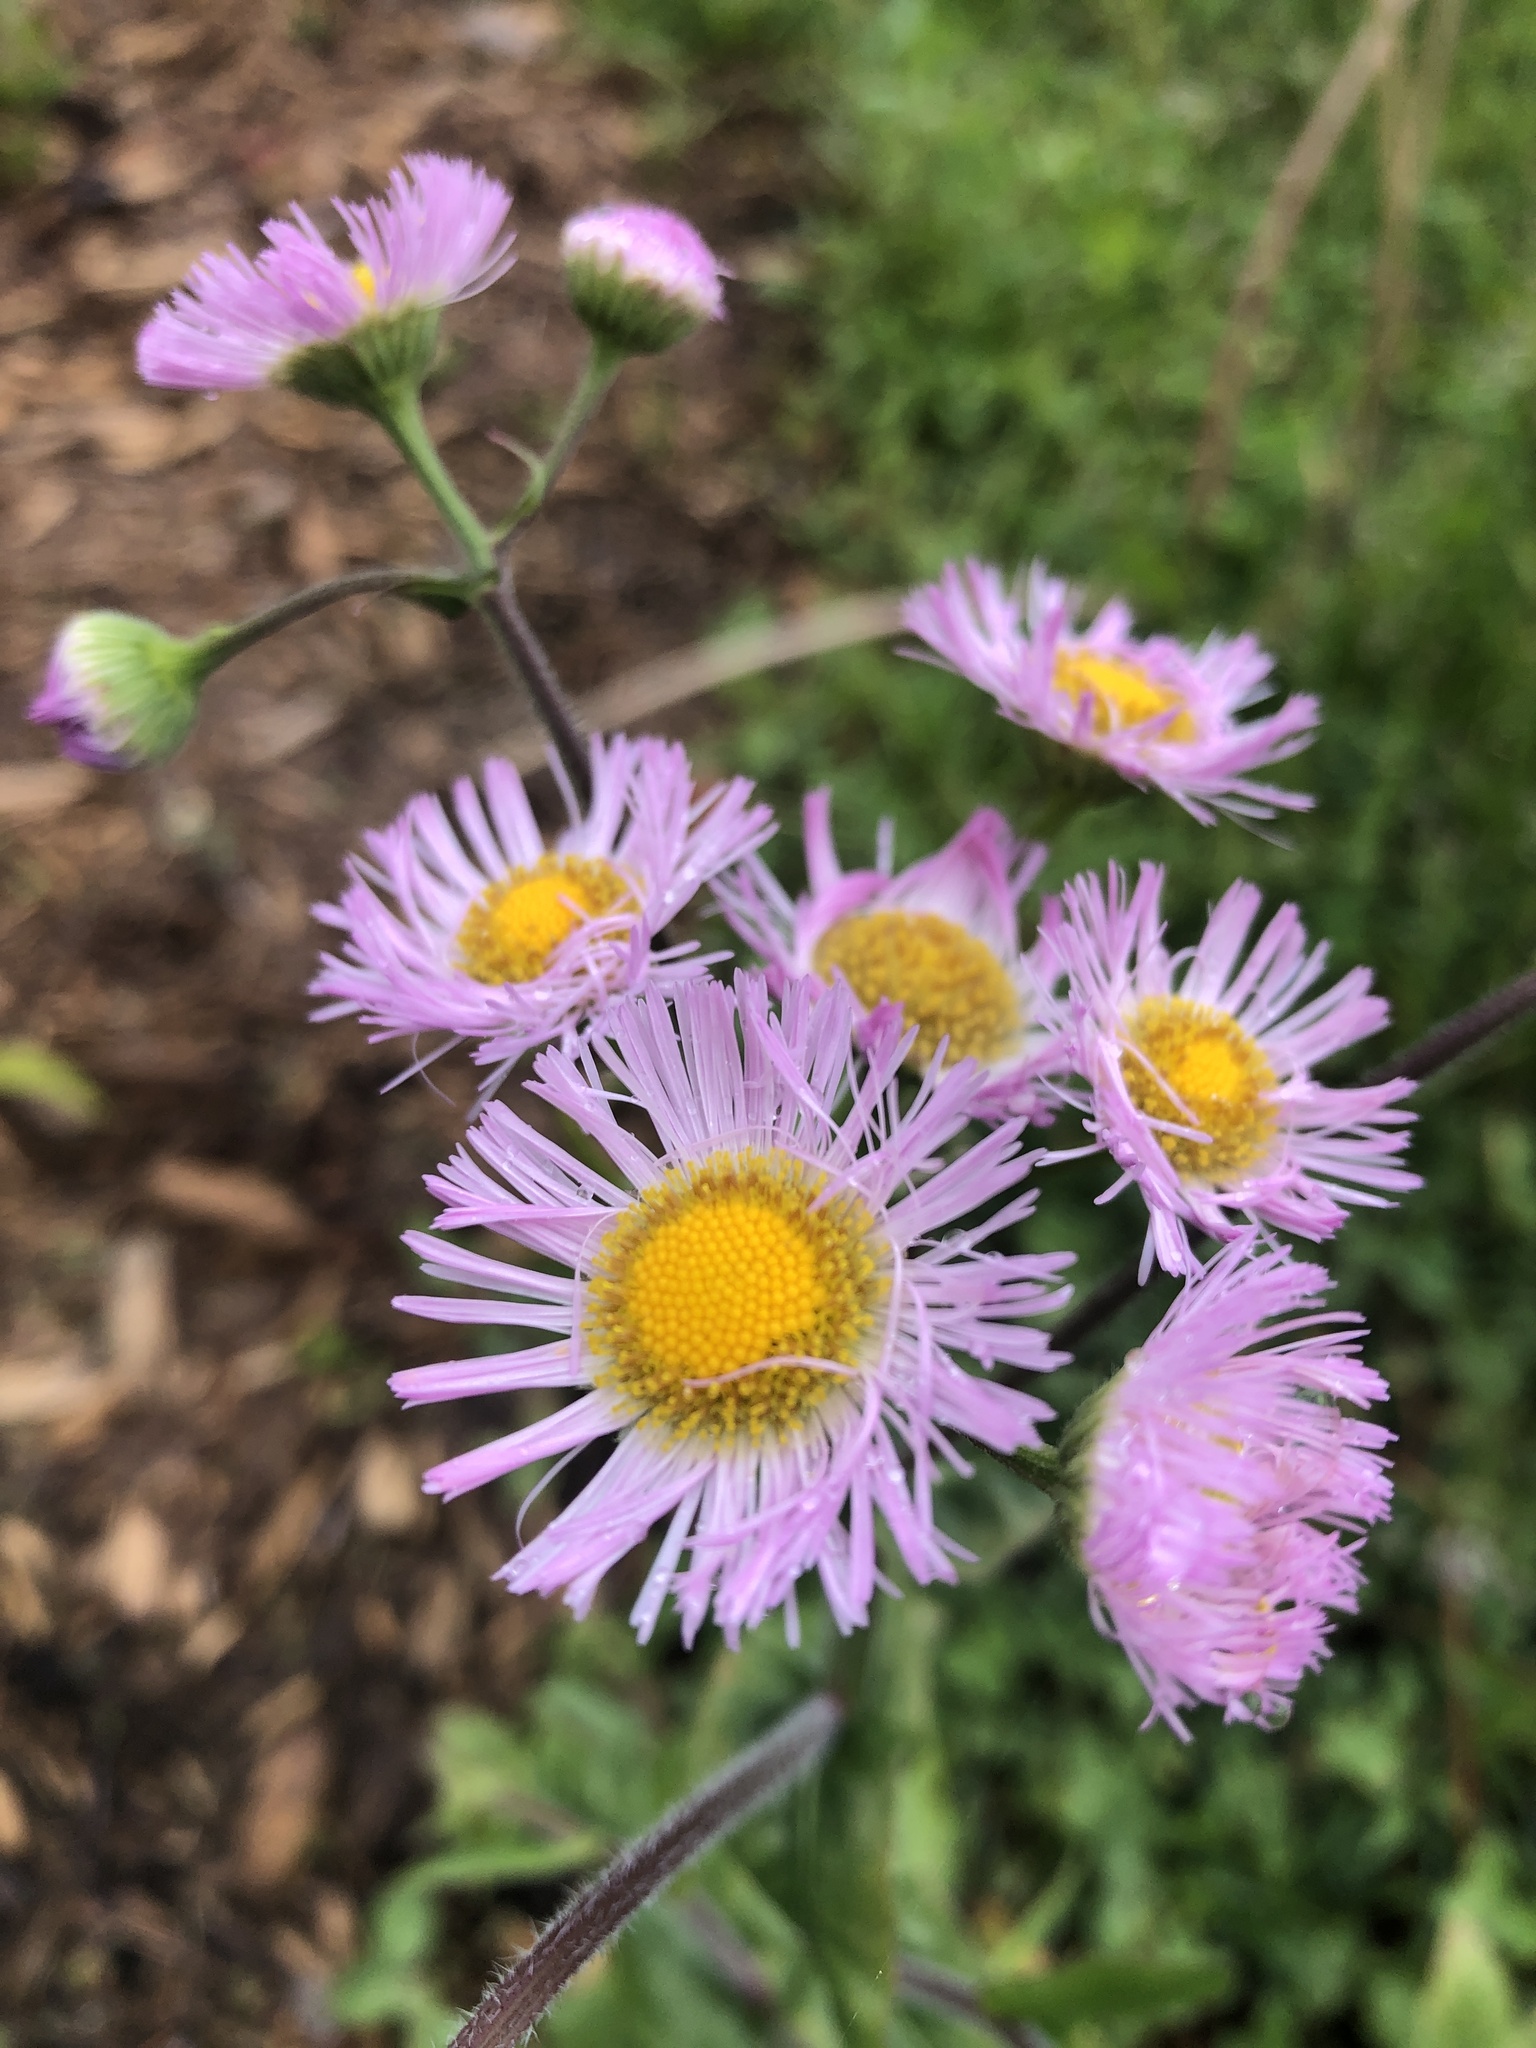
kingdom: Plantae
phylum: Tracheophyta
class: Magnoliopsida
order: Asterales
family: Asteraceae
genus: Erigeron
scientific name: Erigeron philadelphicus
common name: Robin's-plantain
